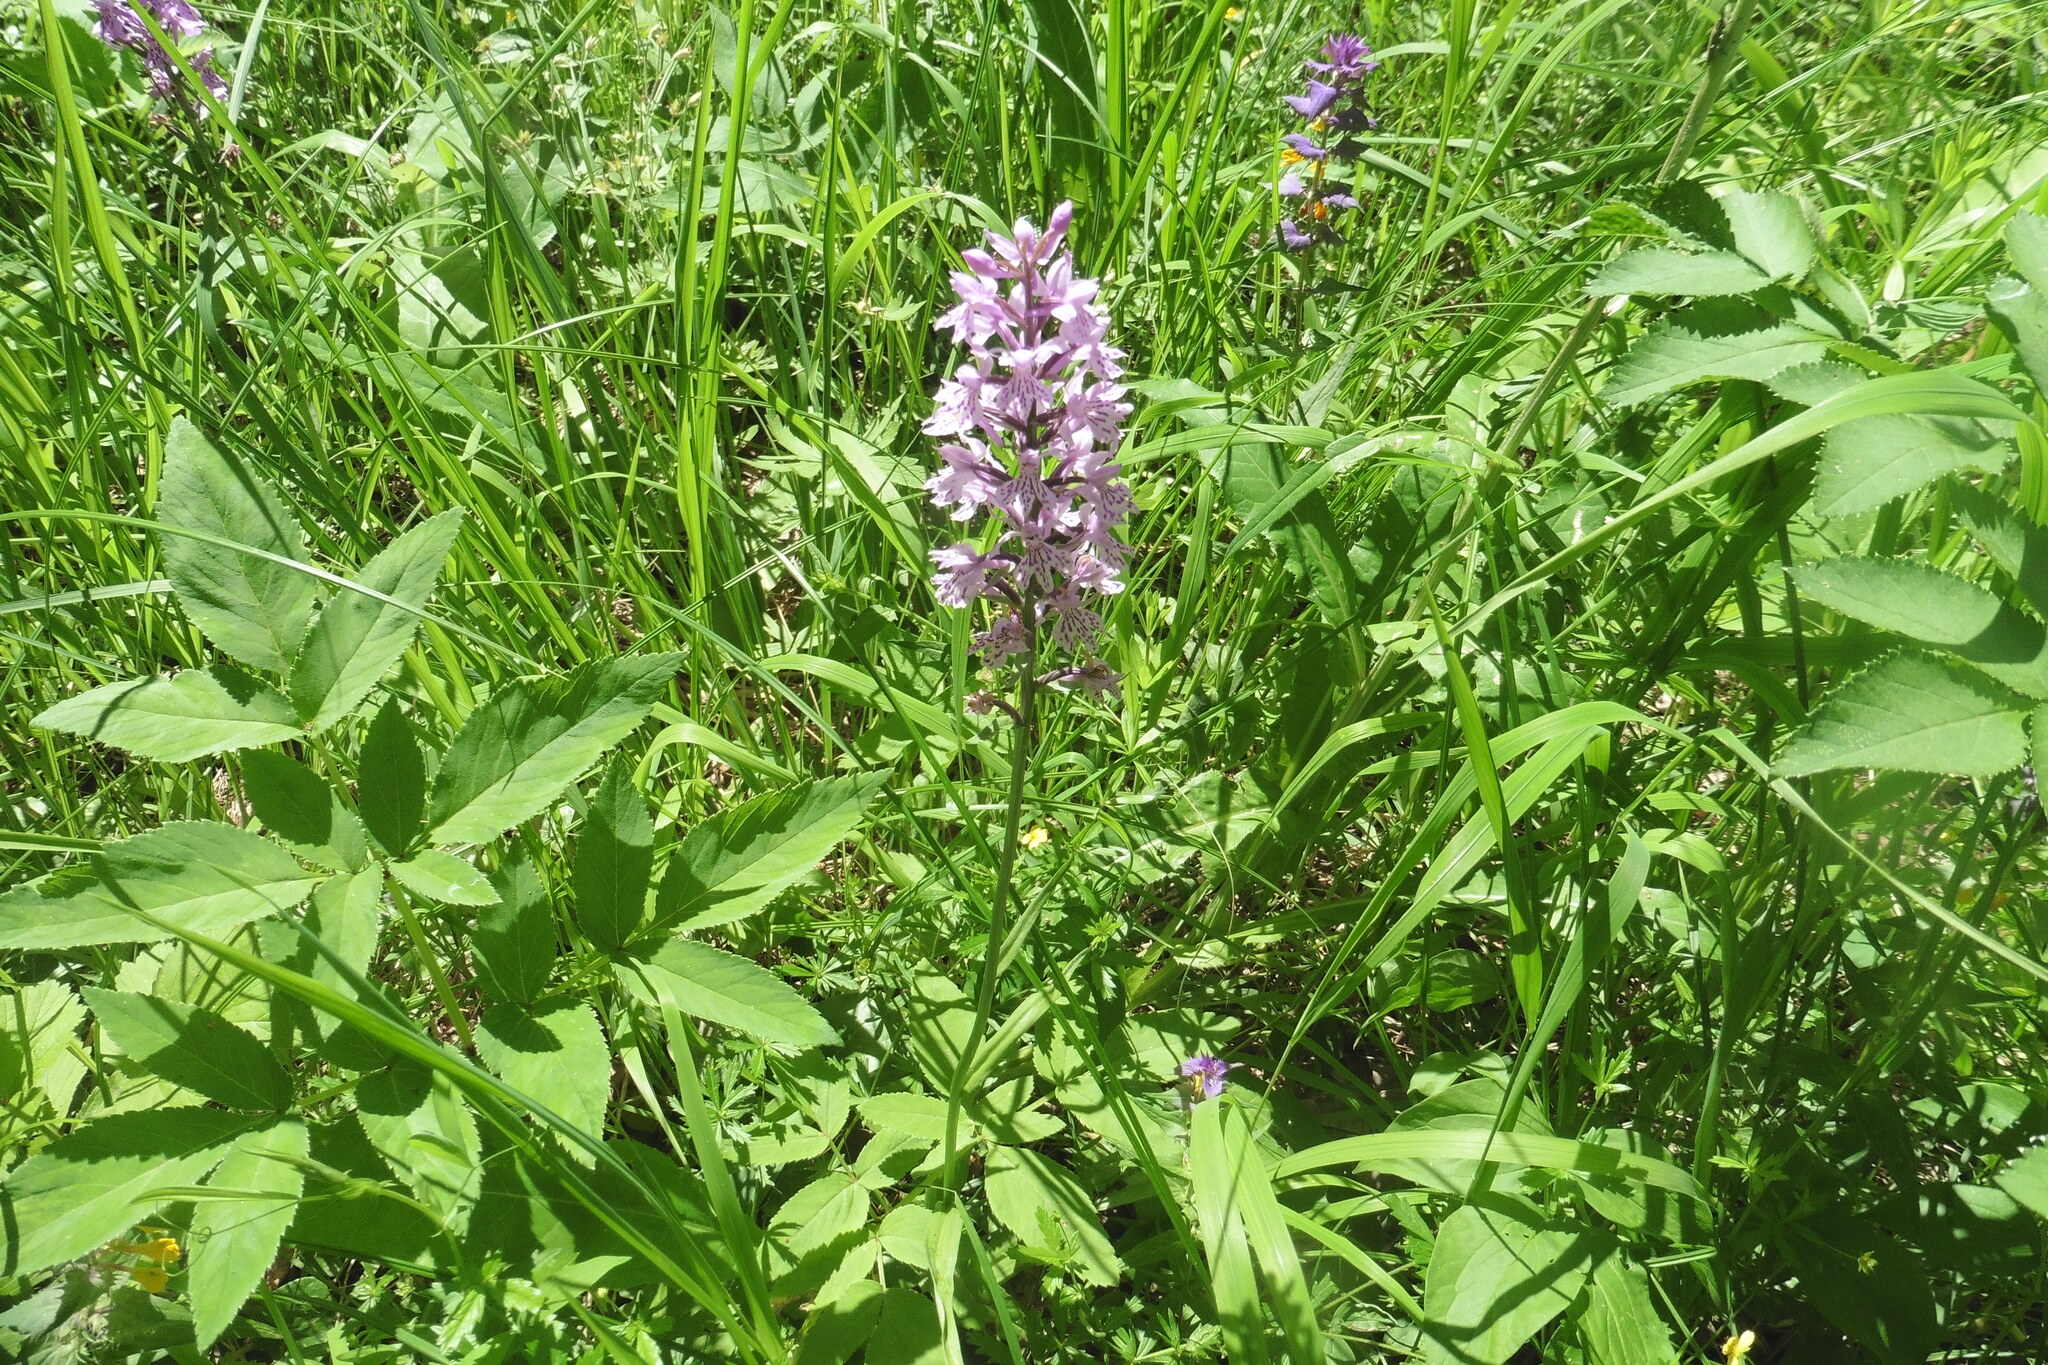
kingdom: Plantae
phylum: Tracheophyta
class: Liliopsida
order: Asparagales
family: Orchidaceae
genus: Dactylorhiza
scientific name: Dactylorhiza maculata
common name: Heath spotted-orchid
